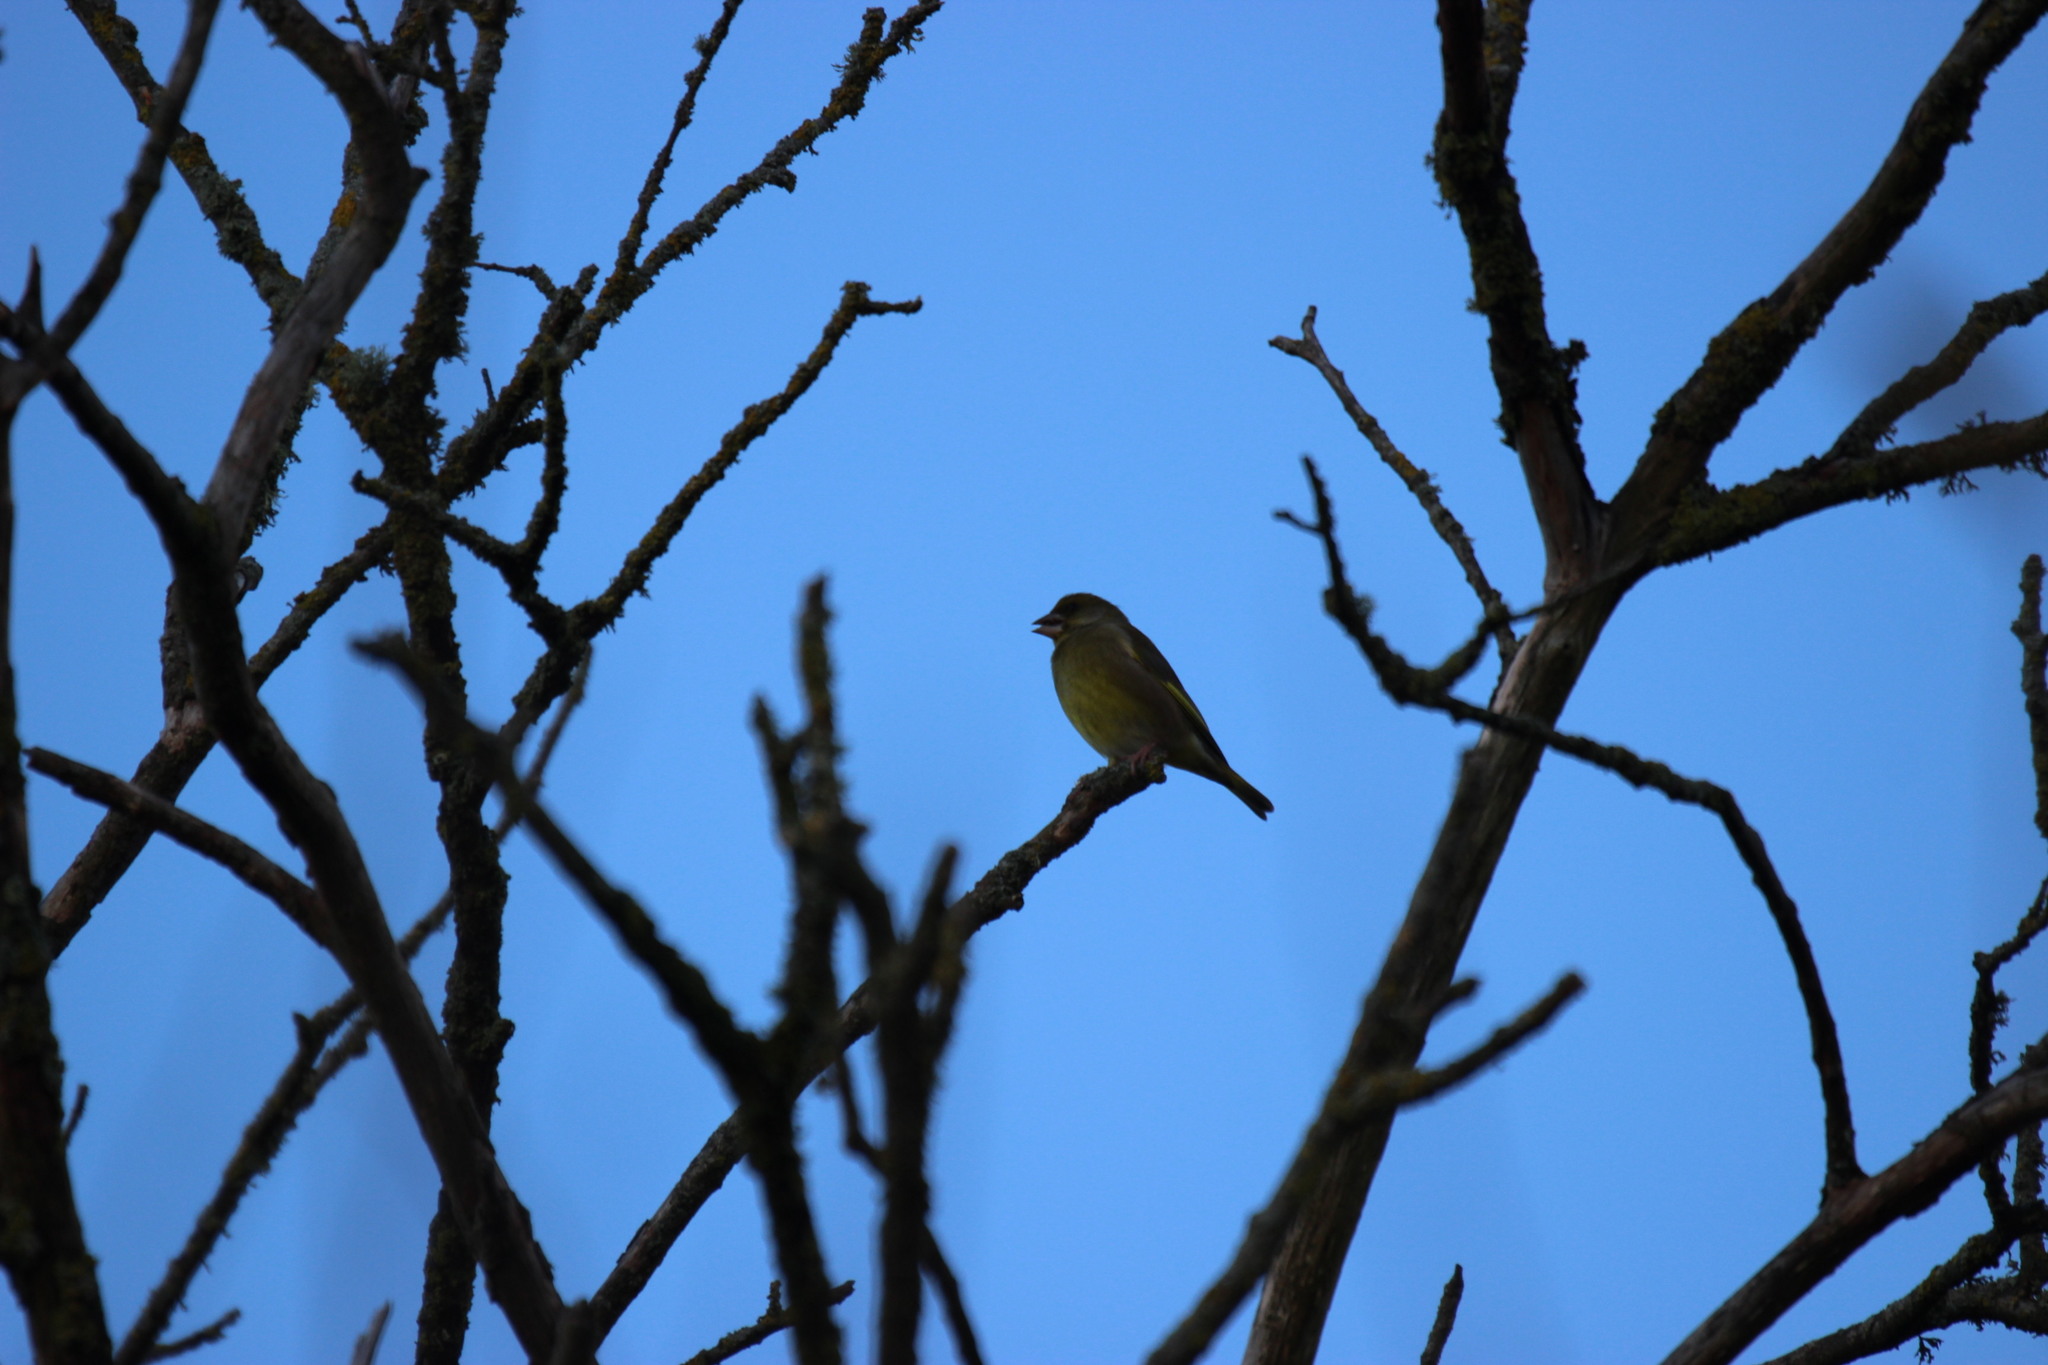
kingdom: Plantae
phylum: Tracheophyta
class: Liliopsida
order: Poales
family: Poaceae
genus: Chloris
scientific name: Chloris chloris
